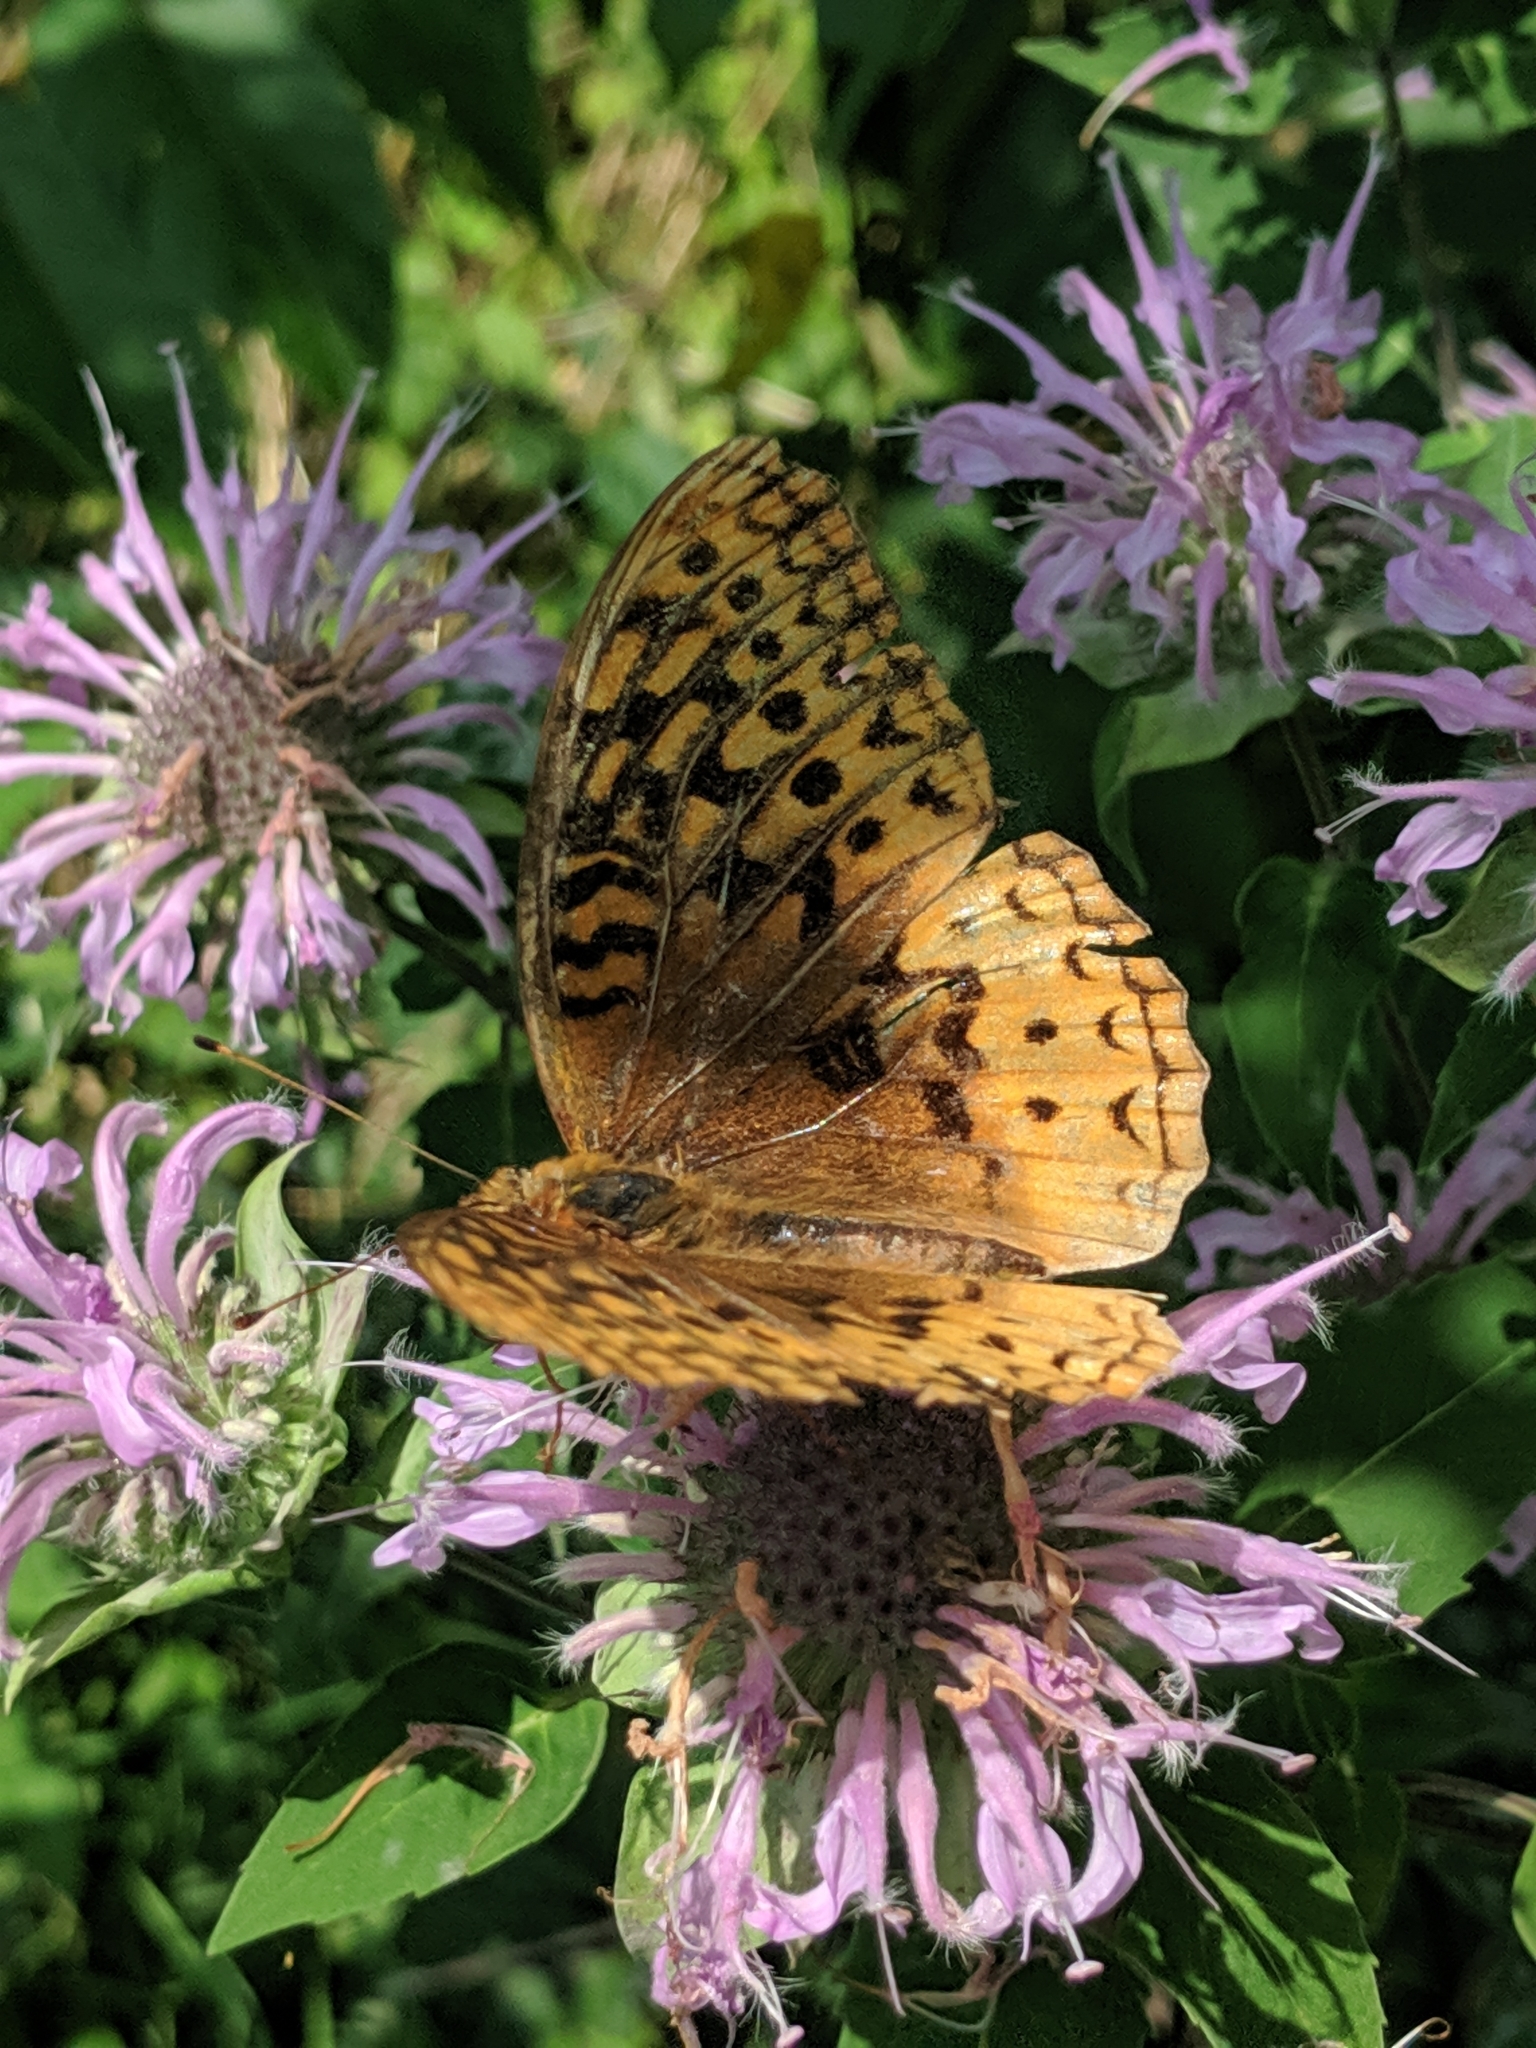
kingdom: Animalia
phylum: Arthropoda
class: Insecta
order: Lepidoptera
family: Nymphalidae
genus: Speyeria
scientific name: Speyeria cybele
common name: Great spangled fritillary
